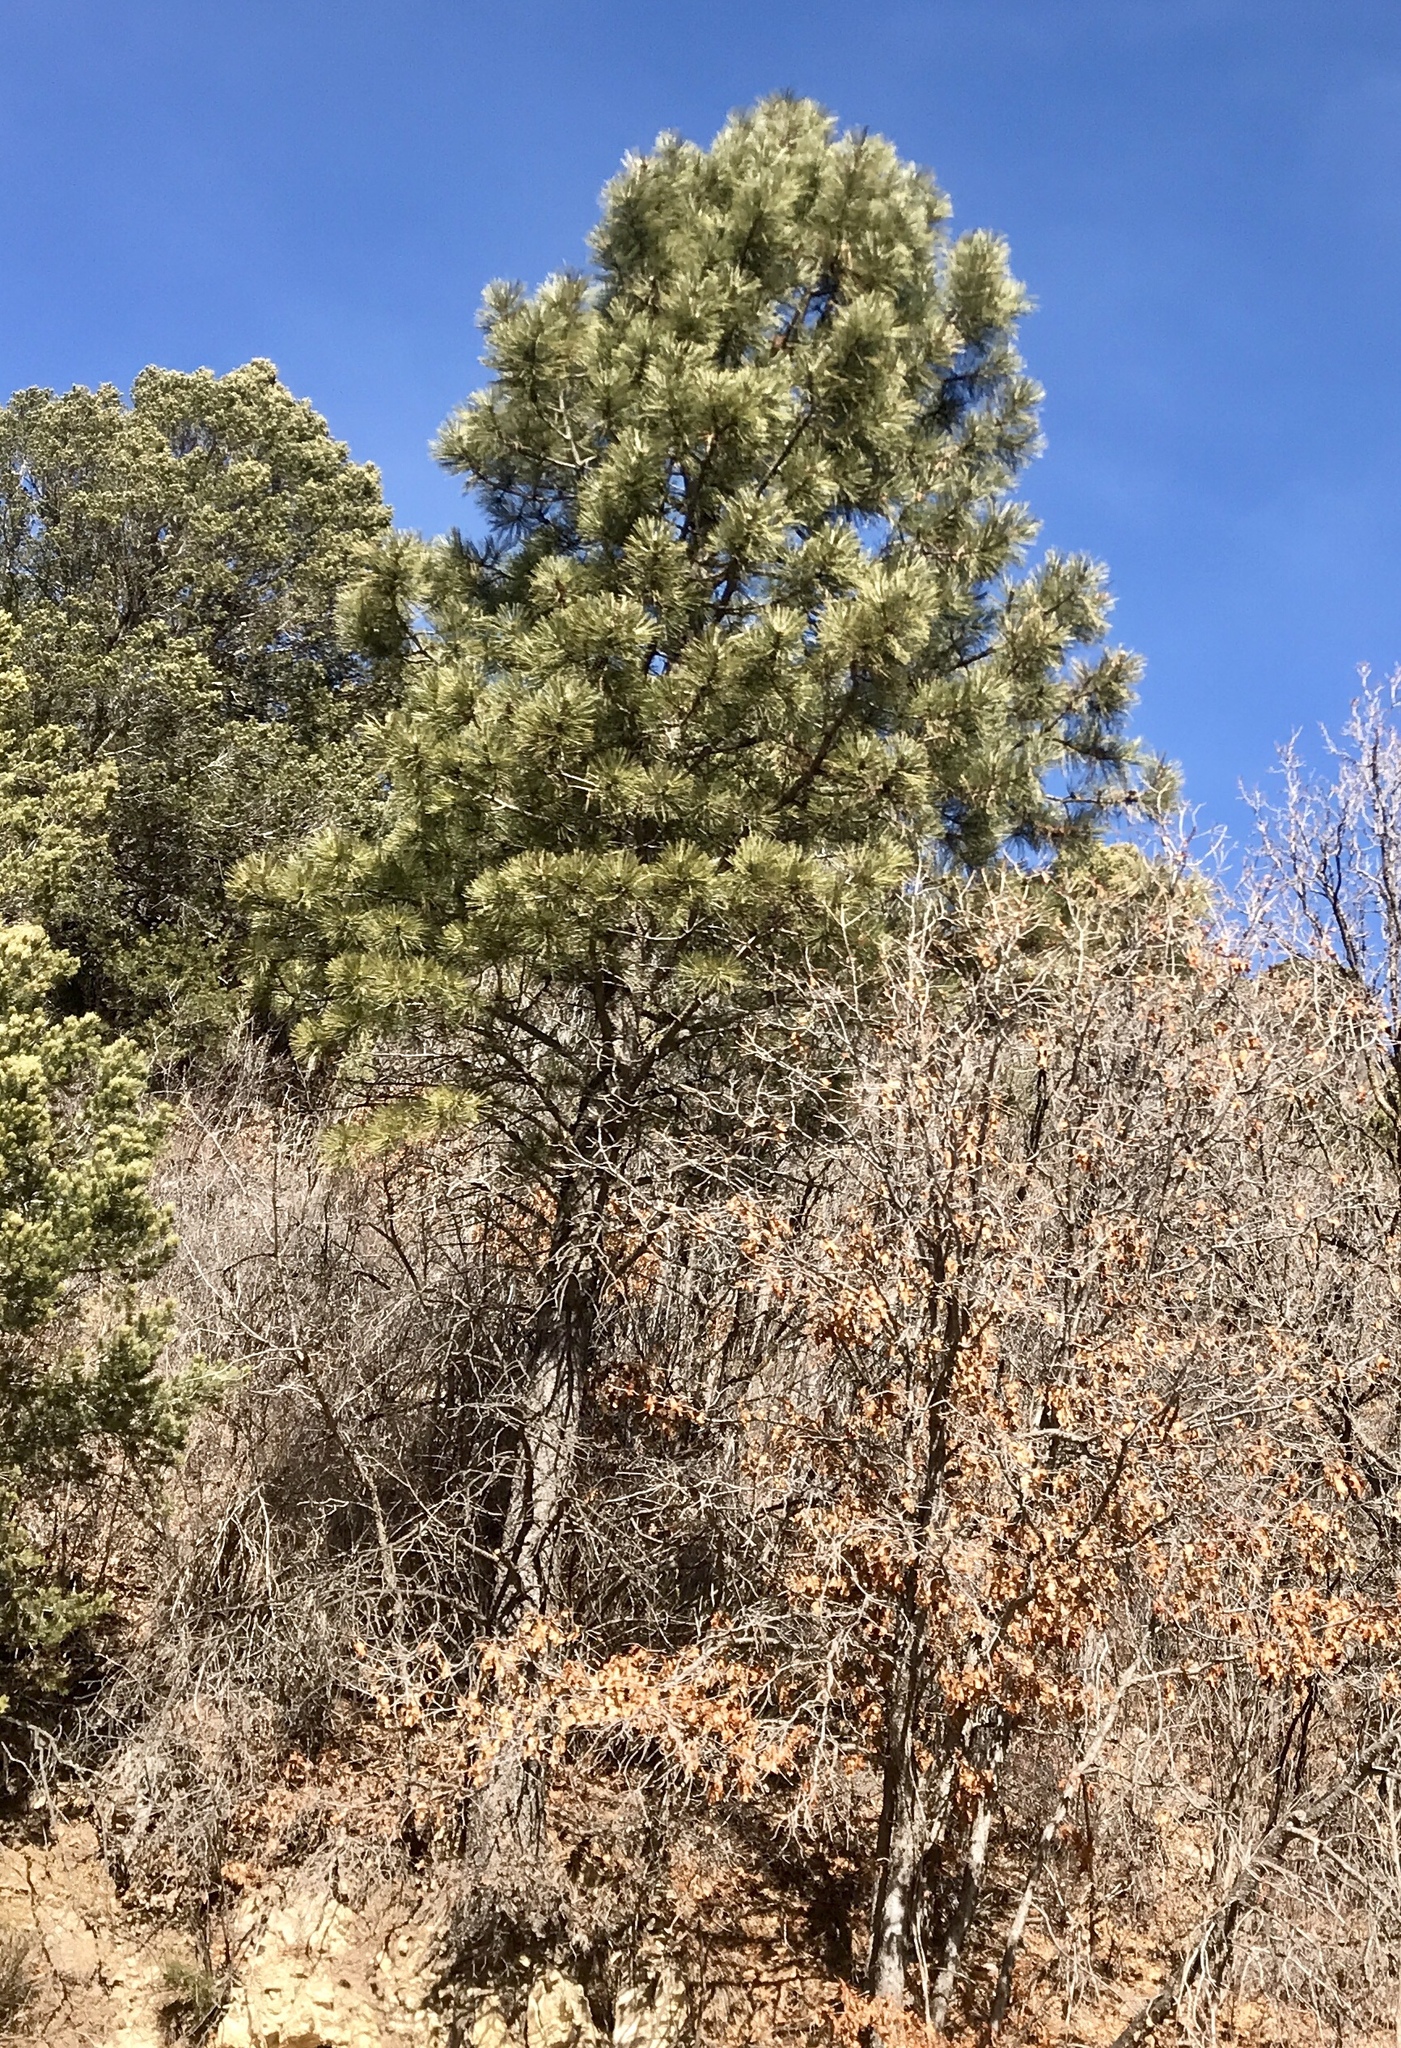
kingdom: Plantae
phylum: Tracheophyta
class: Pinopsida
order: Pinales
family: Pinaceae
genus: Pinus
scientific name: Pinus ponderosa
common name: Western yellow-pine
